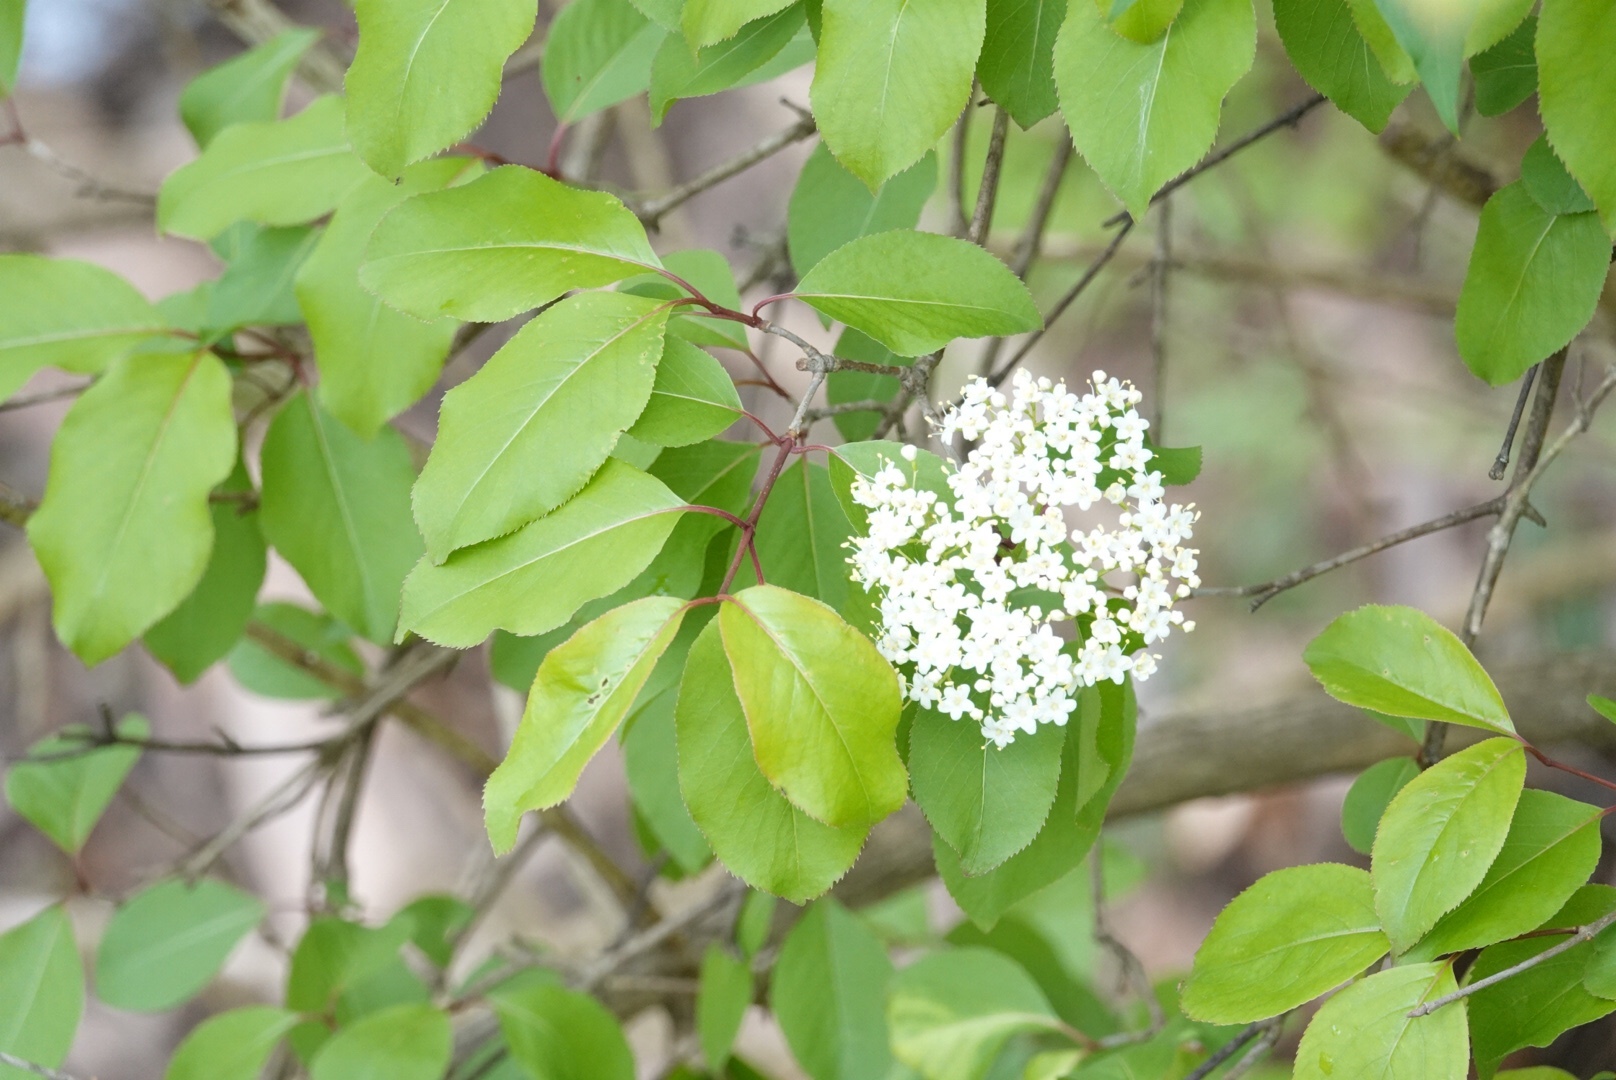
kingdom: Plantae
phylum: Tracheophyta
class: Magnoliopsida
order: Dipsacales
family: Viburnaceae
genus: Viburnum
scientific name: Viburnum prunifolium
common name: Black haw
